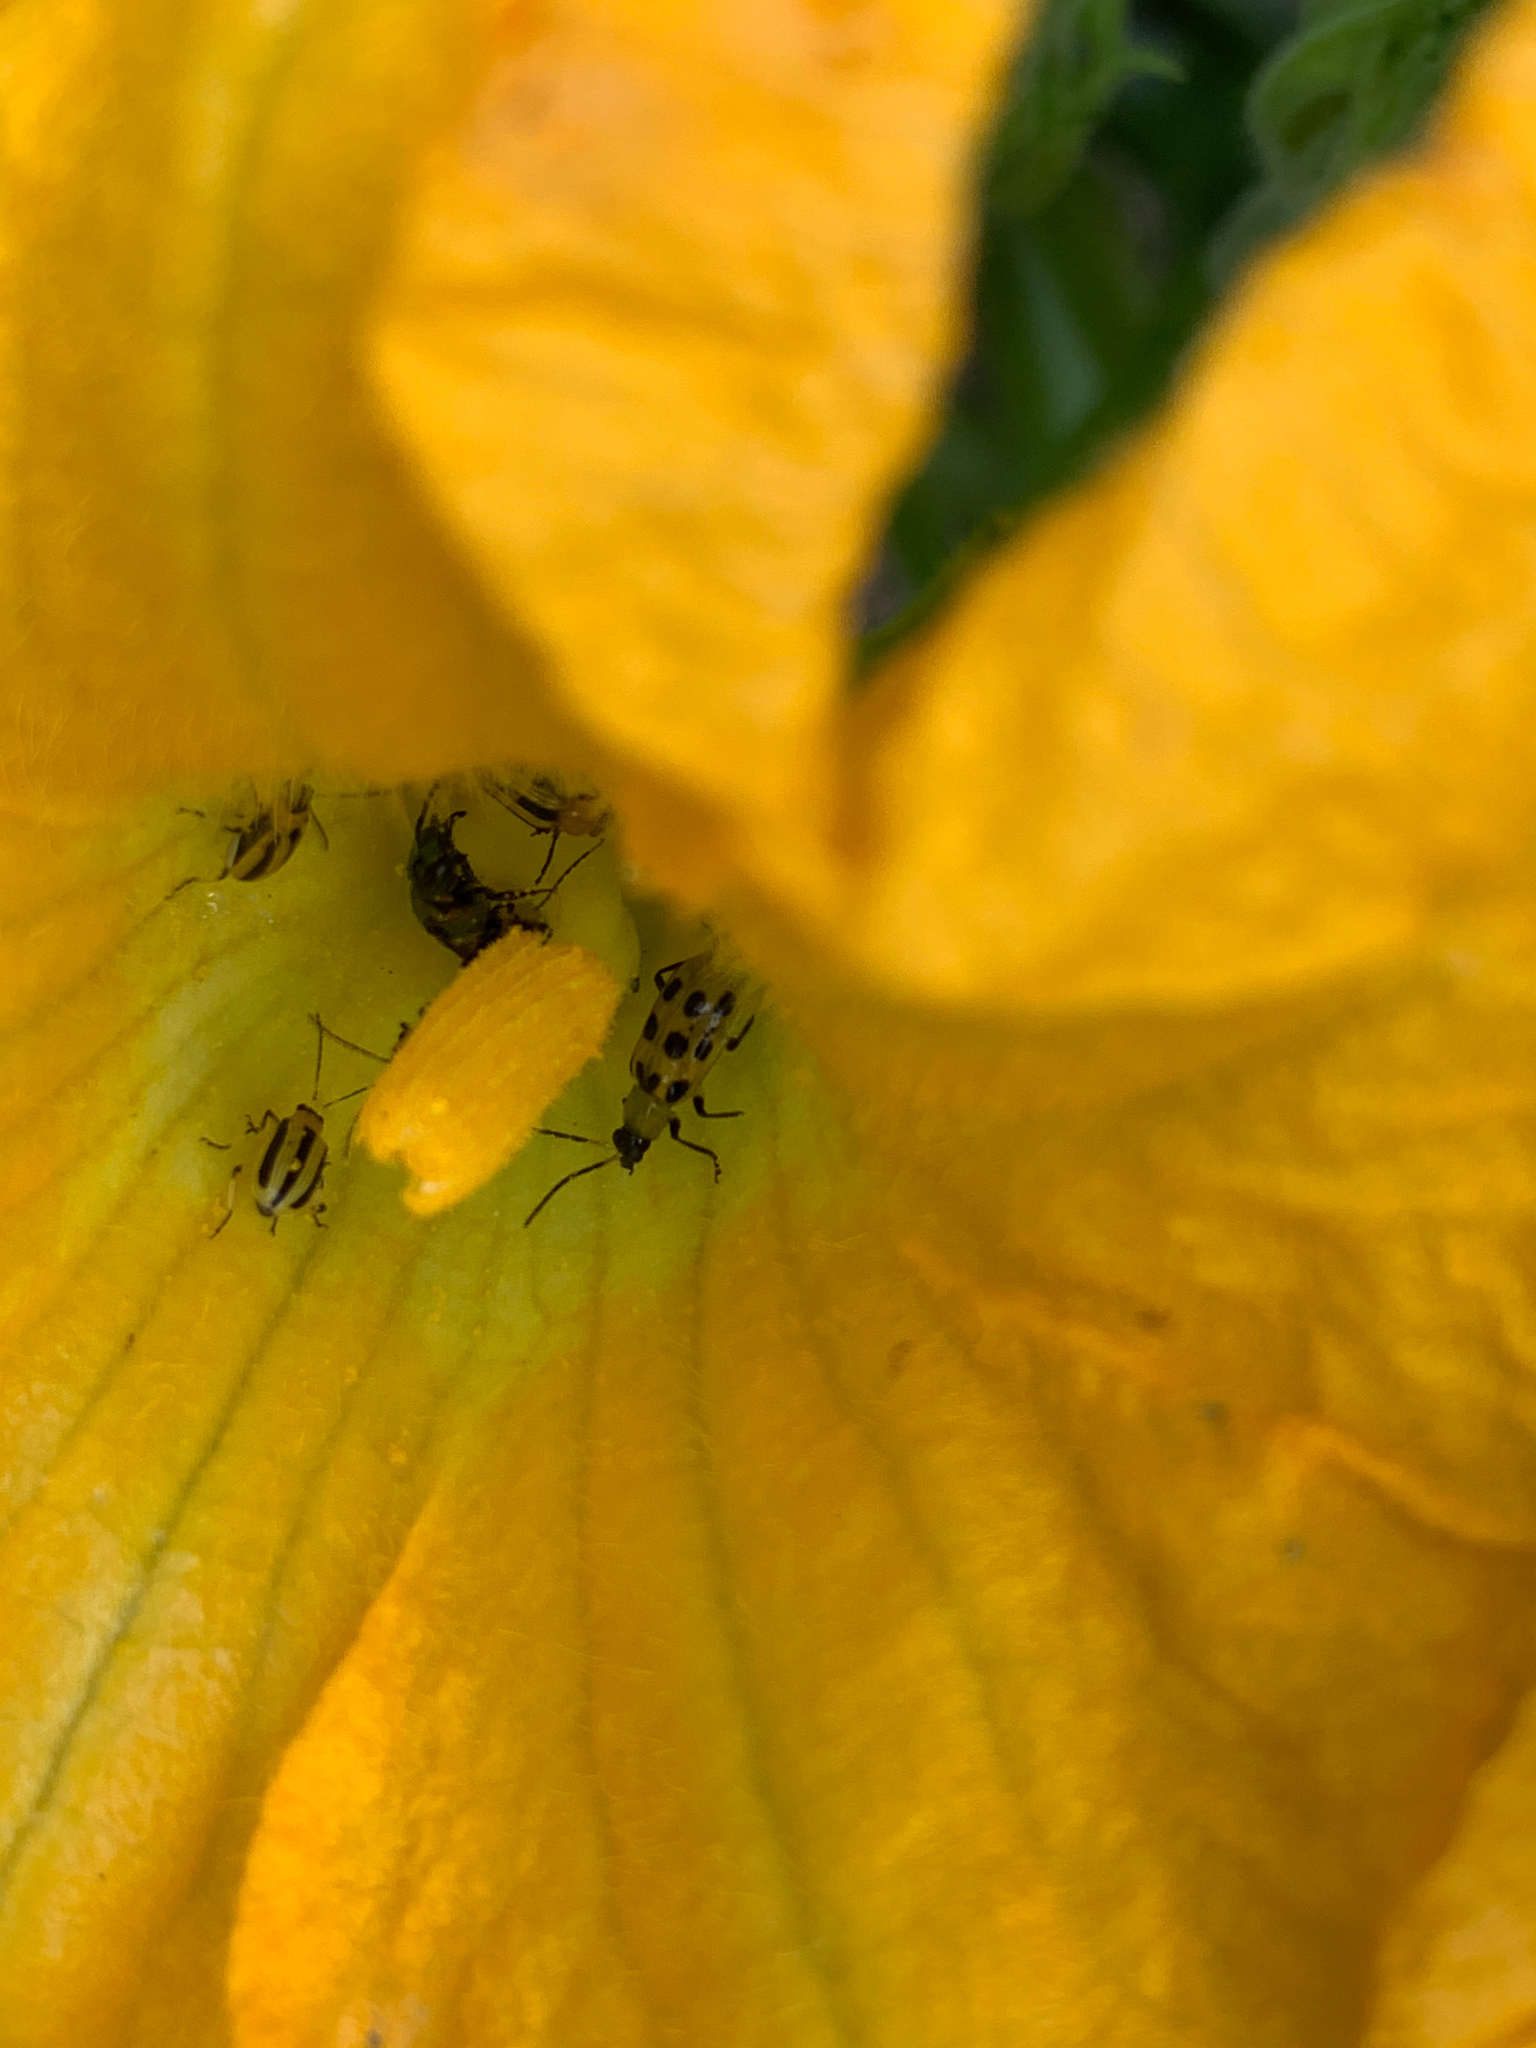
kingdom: Animalia
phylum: Arthropoda
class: Insecta
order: Coleoptera
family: Chrysomelidae
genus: Acalymma
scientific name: Acalymma vittatum
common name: Striped cucumber beetle
